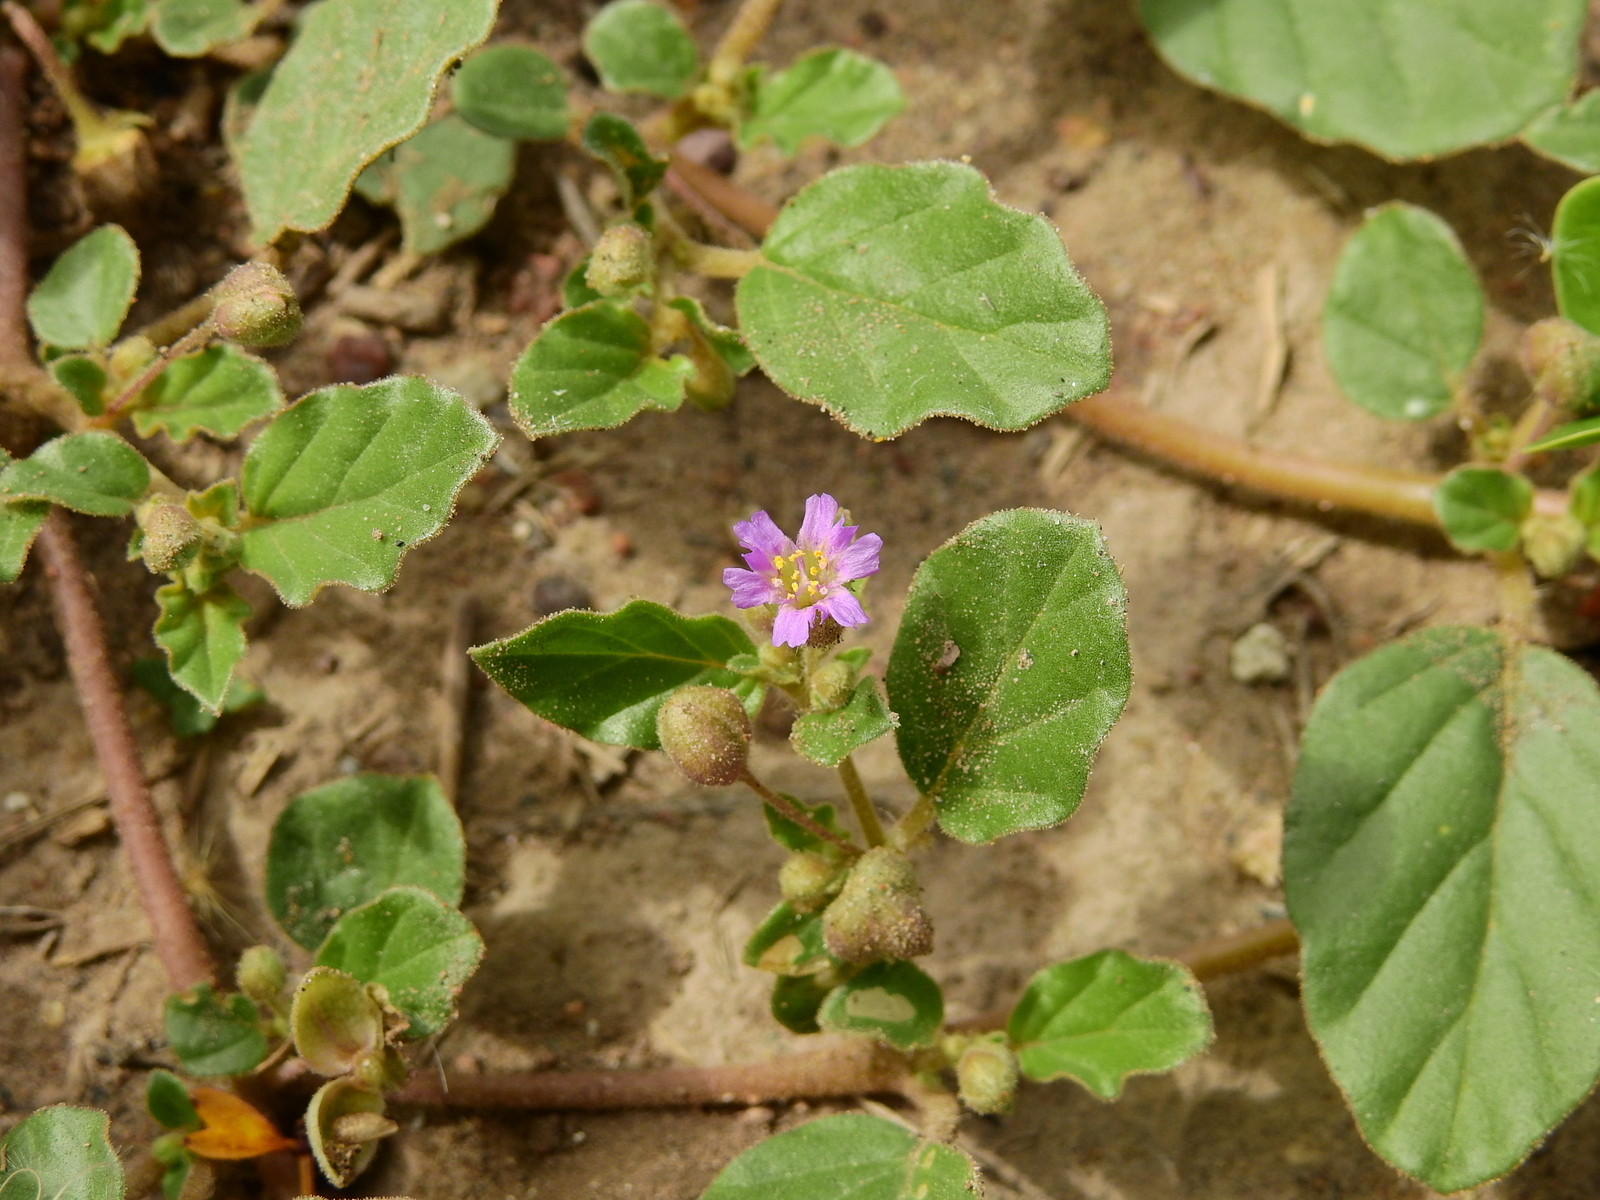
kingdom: Plantae
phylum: Tracheophyta
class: Magnoliopsida
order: Caryophyllales
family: Nyctaginaceae
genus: Allionia
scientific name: Allionia incarnata
